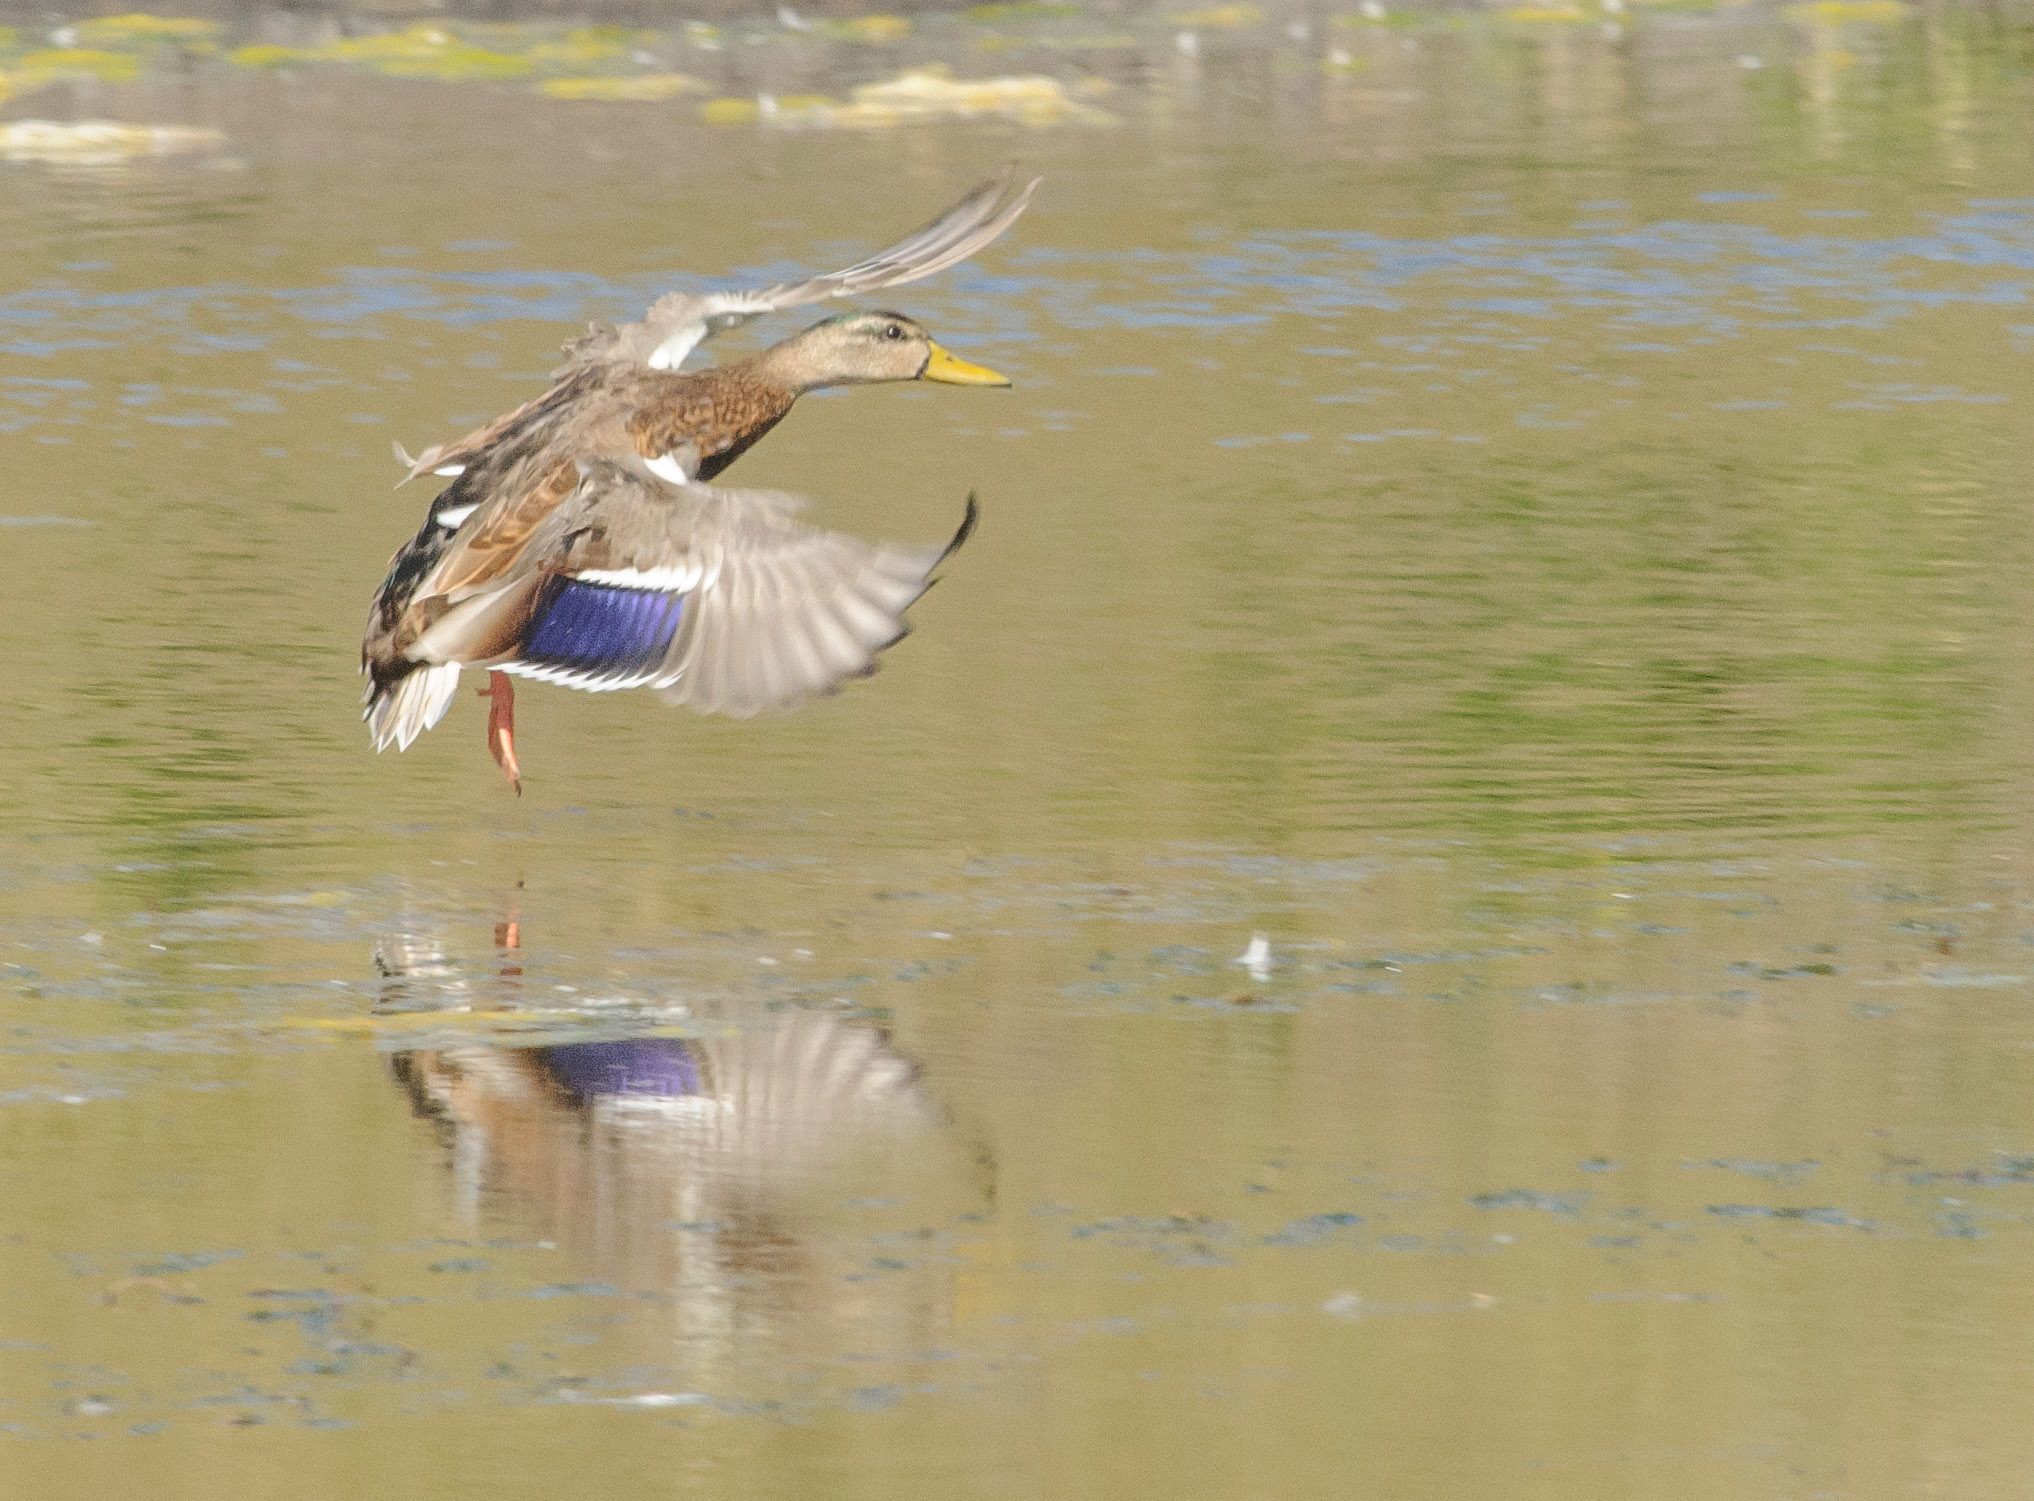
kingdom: Animalia
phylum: Chordata
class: Aves
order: Anseriformes
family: Anatidae
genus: Anas
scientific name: Anas platyrhynchos
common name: Mallard
